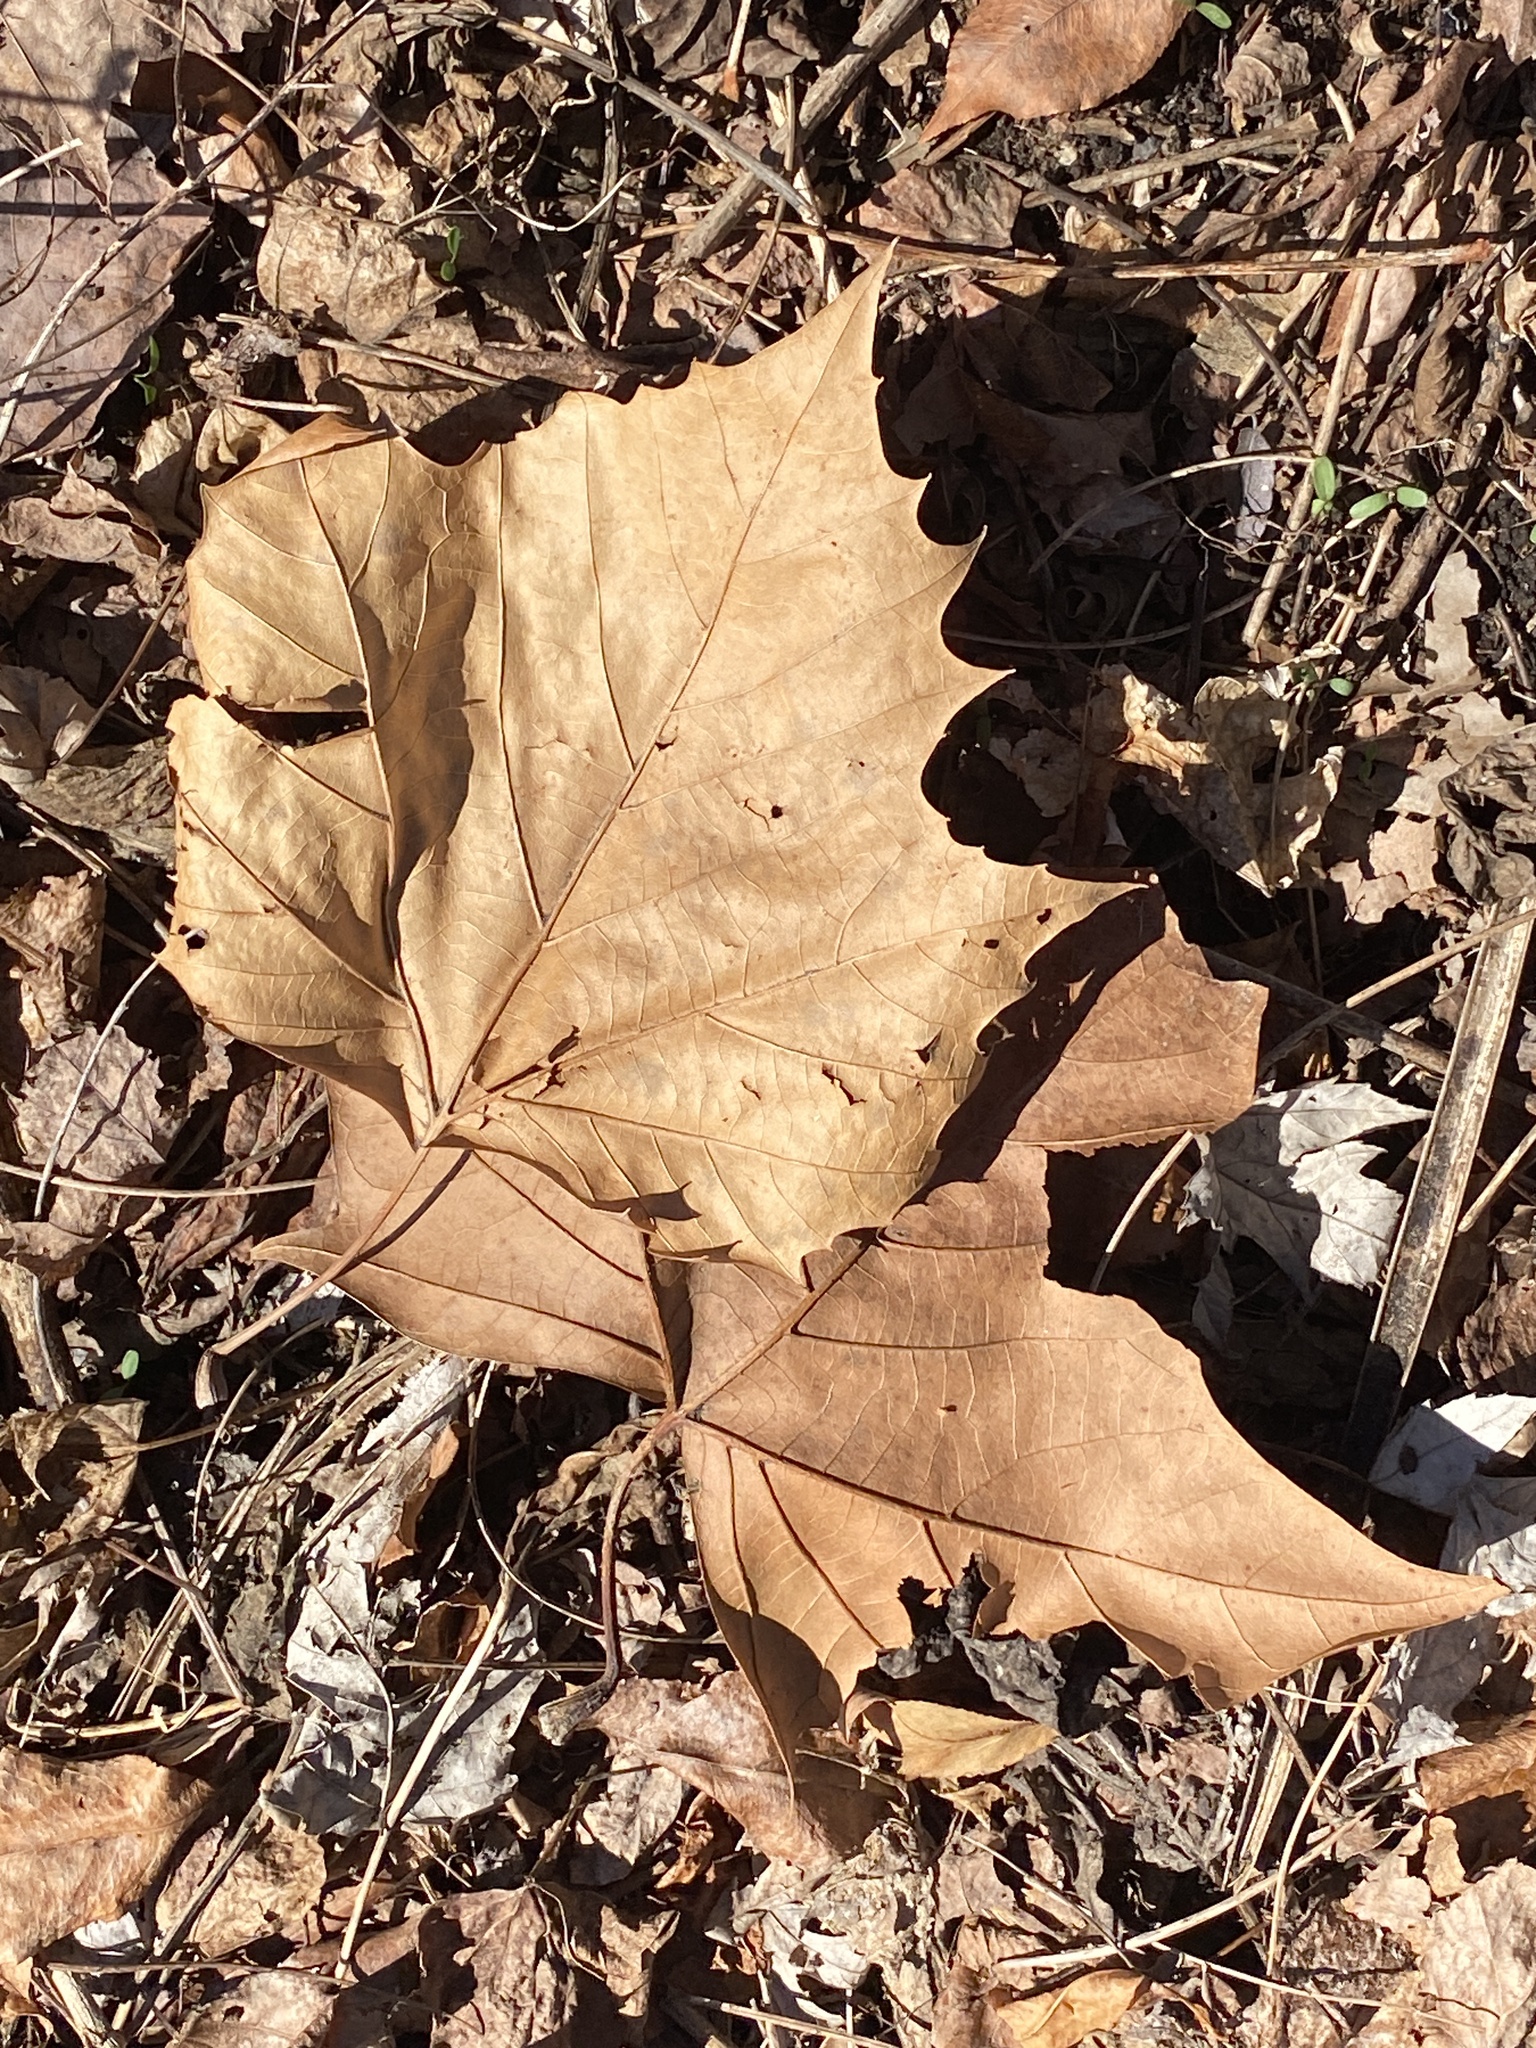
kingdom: Plantae
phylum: Tracheophyta
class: Magnoliopsida
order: Proteales
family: Platanaceae
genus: Platanus
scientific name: Platanus occidentalis
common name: American sycamore
